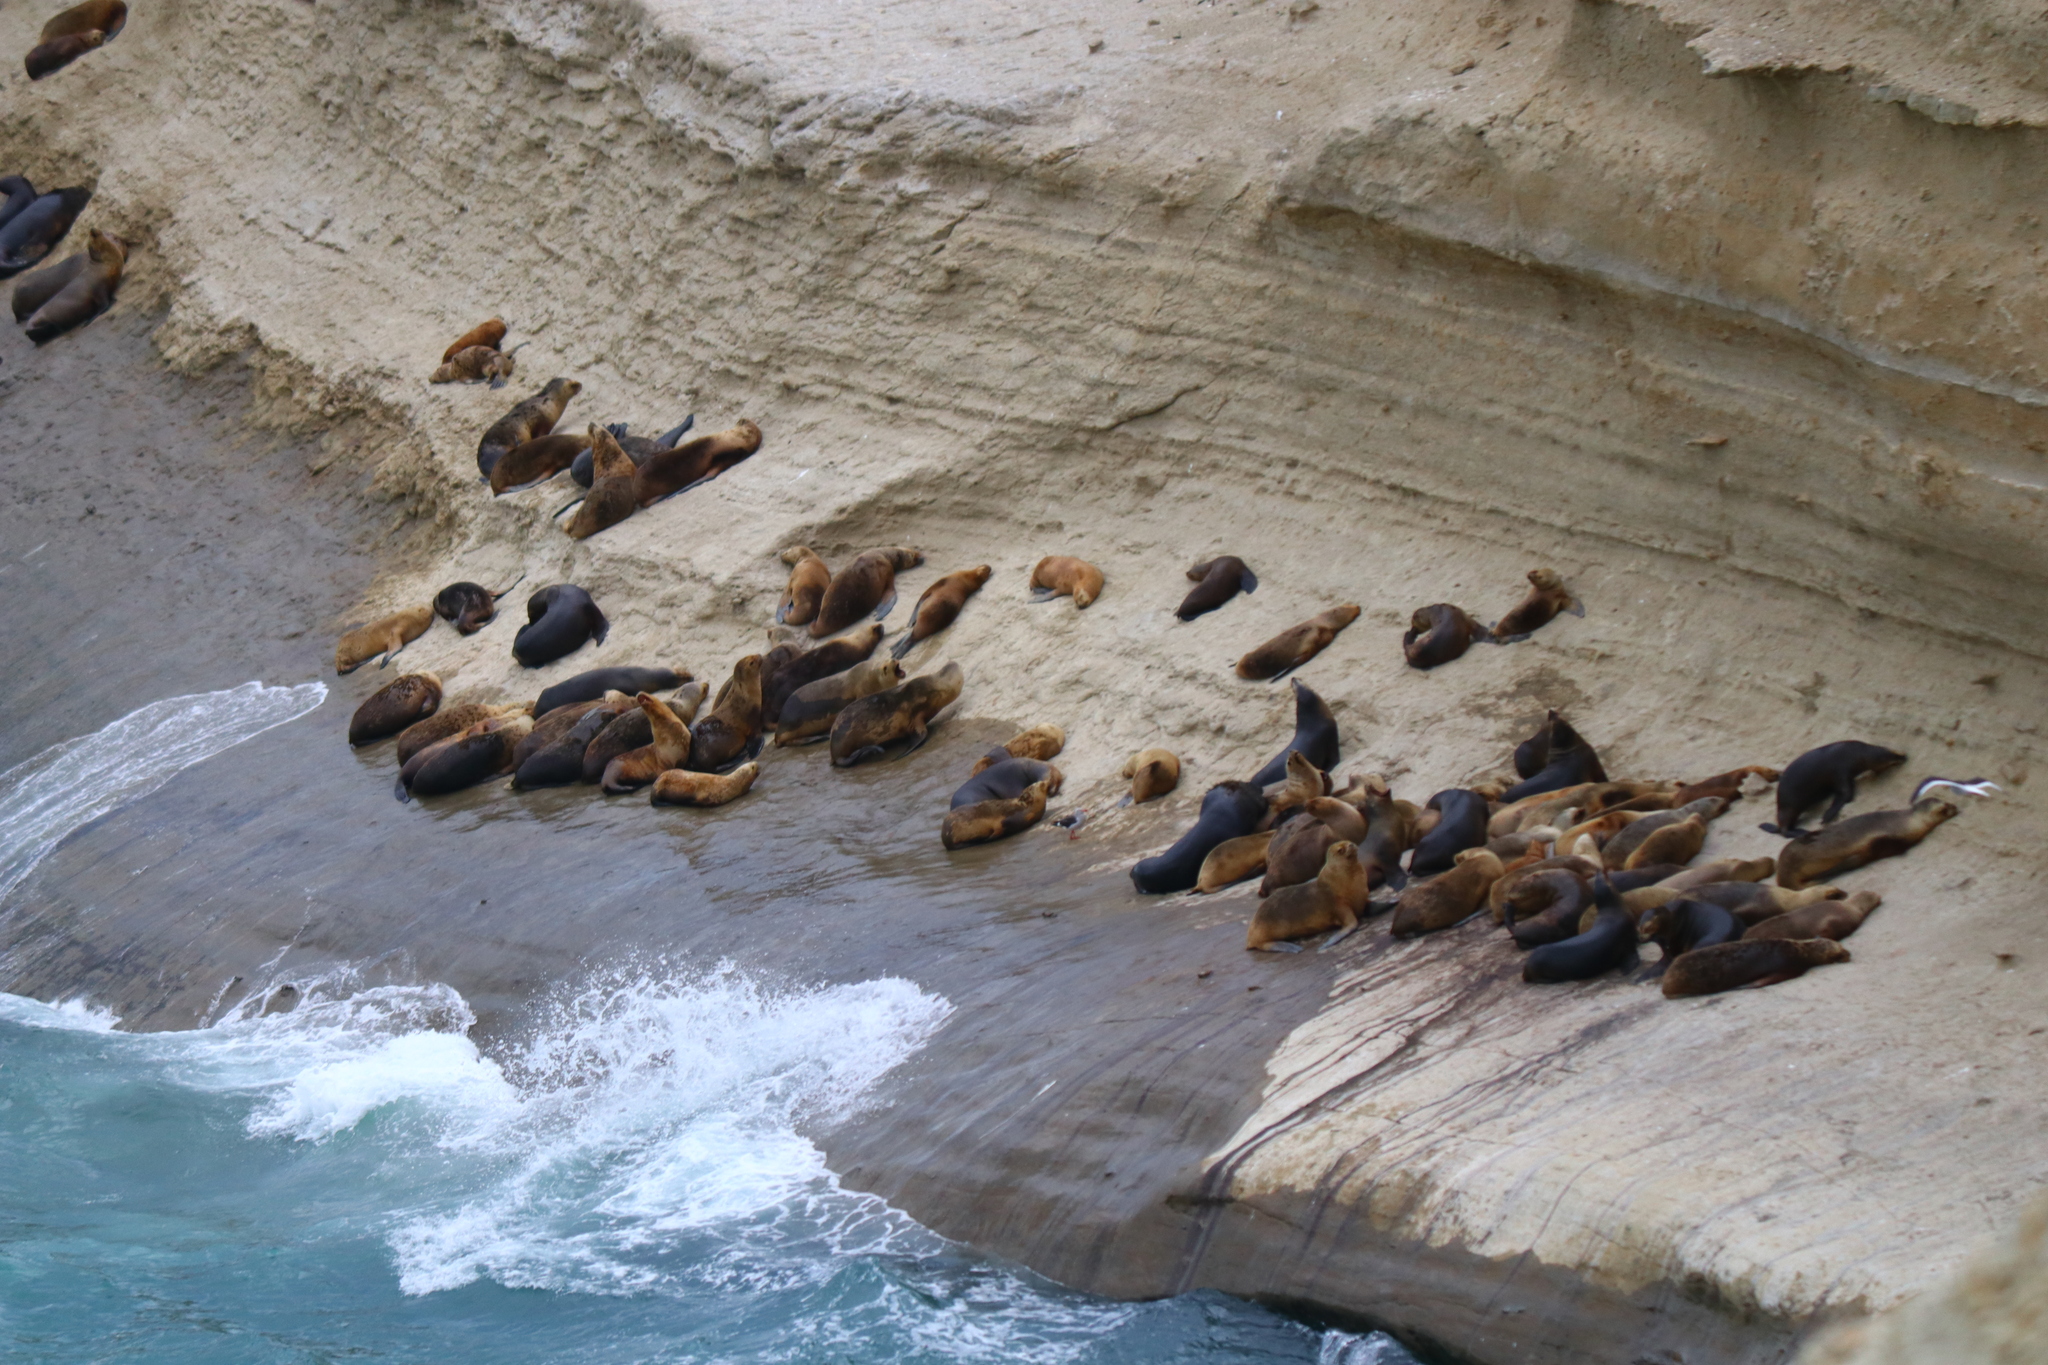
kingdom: Animalia
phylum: Chordata
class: Mammalia
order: Carnivora
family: Otariidae
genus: Otaria
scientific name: Otaria byronia
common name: South american sea lion
